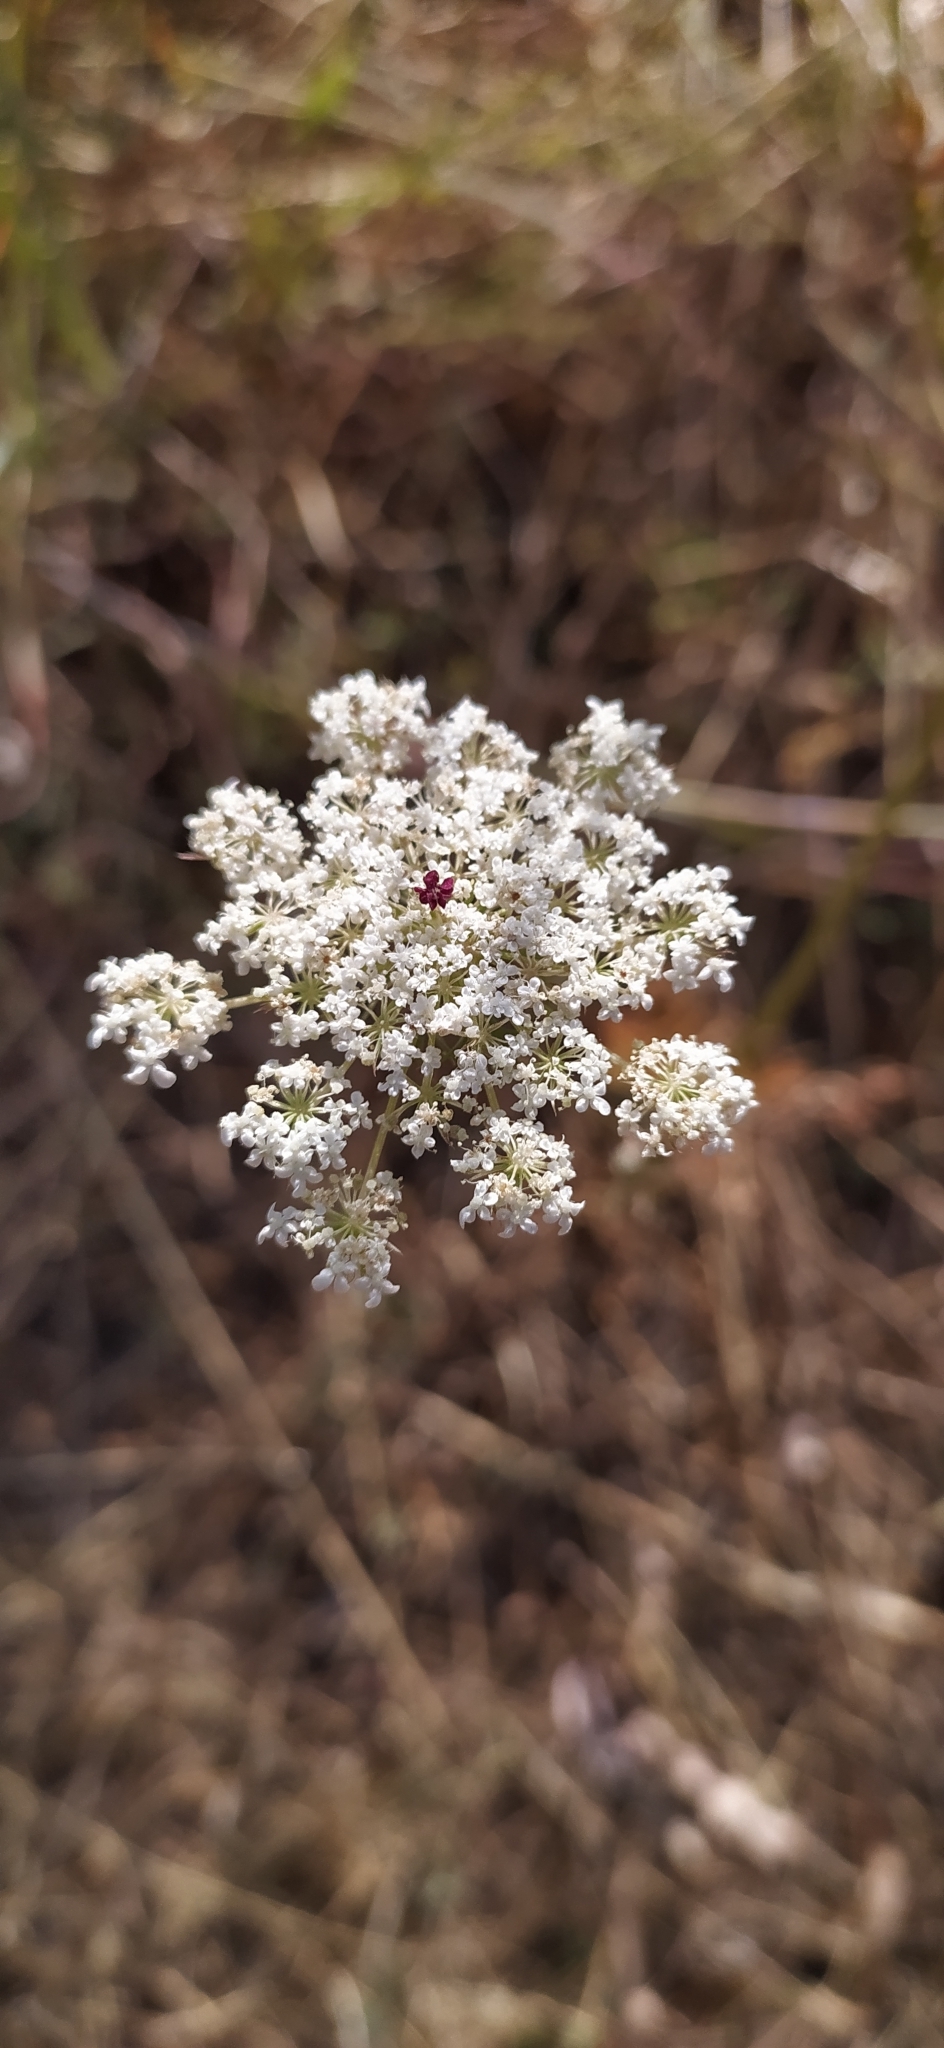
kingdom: Plantae
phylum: Tracheophyta
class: Magnoliopsida
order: Apiales
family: Apiaceae
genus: Daucus
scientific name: Daucus carota
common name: Wild carrot
